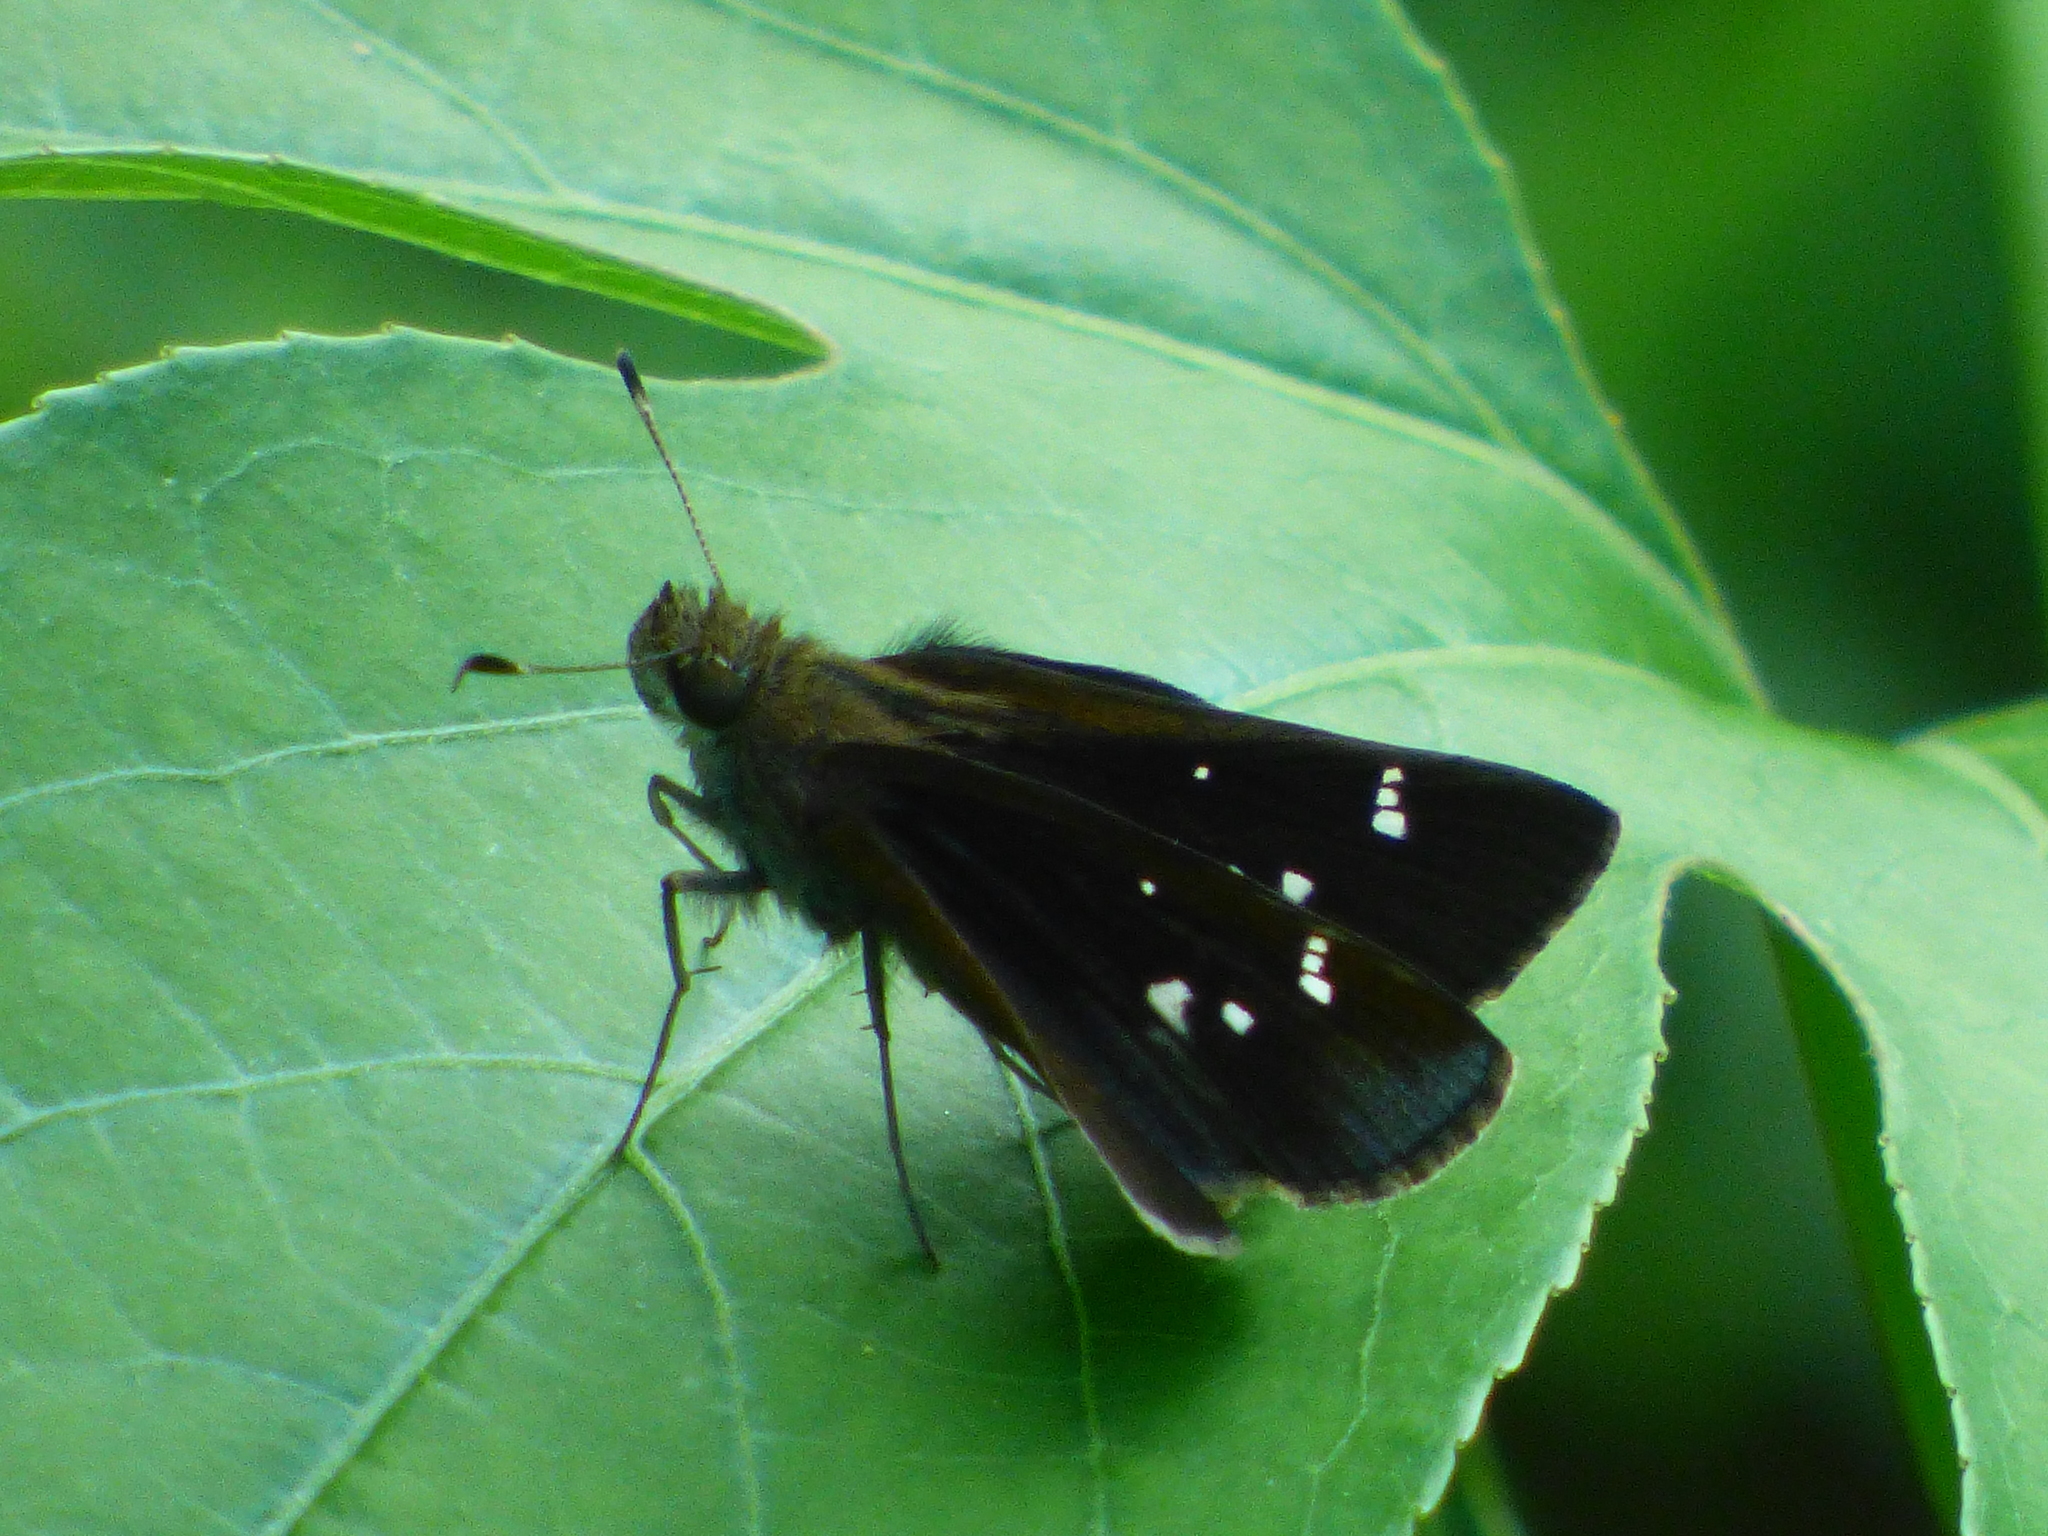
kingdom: Animalia
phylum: Arthropoda
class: Insecta
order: Lepidoptera
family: Hesperiidae
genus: Lerema
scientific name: Lerema accius
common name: Clouded skipper
